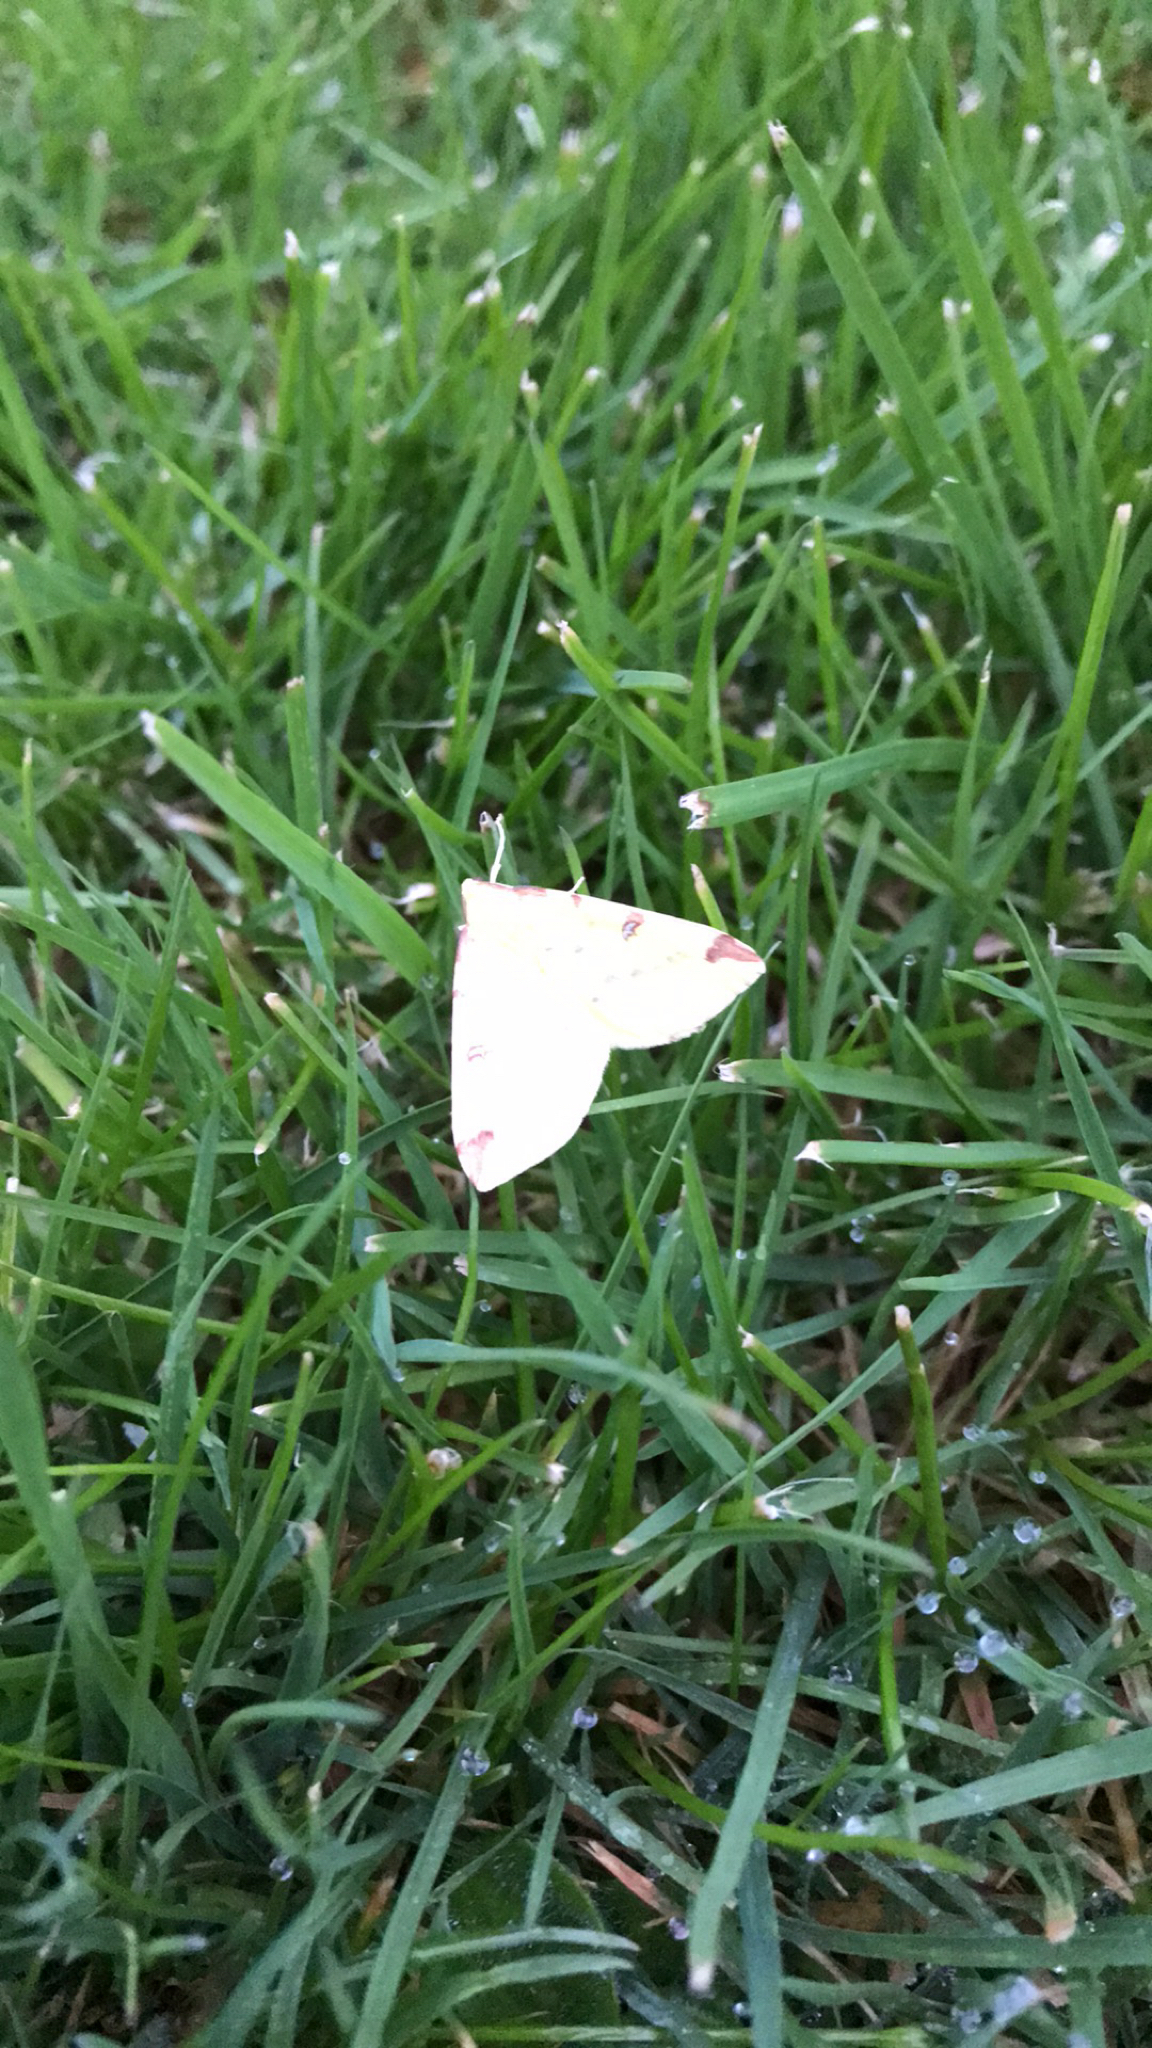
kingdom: Animalia
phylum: Arthropoda
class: Insecta
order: Lepidoptera
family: Geometridae
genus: Opisthograptis
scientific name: Opisthograptis luteolata
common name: Brimstone moth
